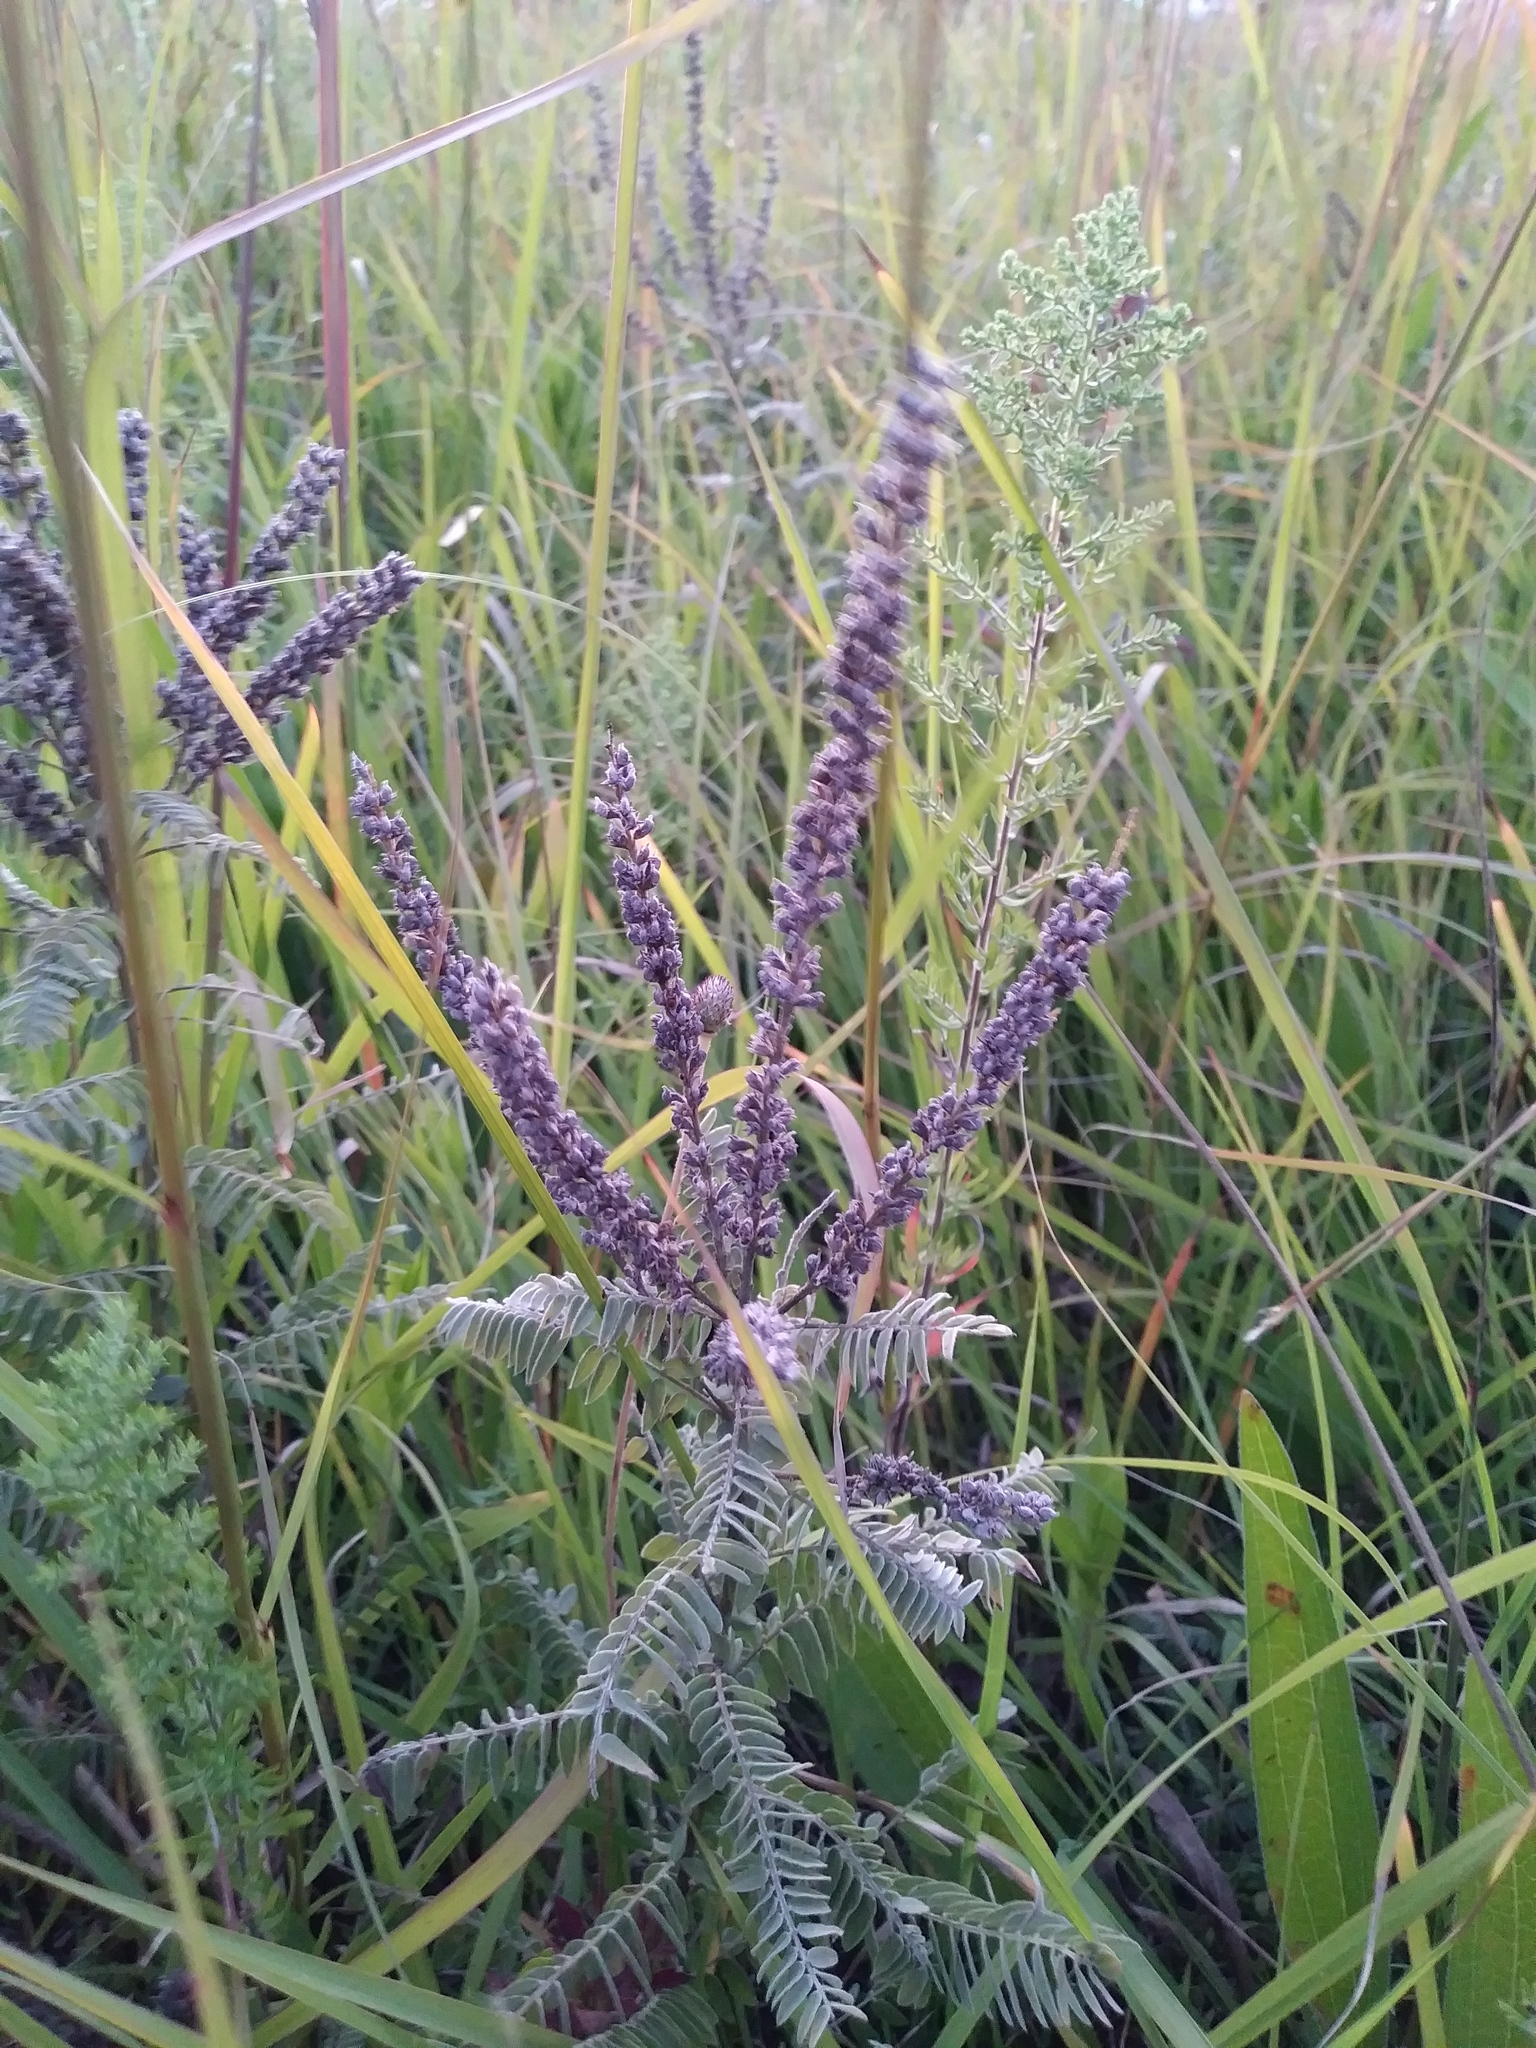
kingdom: Plantae
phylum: Tracheophyta
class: Magnoliopsida
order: Fabales
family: Fabaceae
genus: Amorpha
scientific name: Amorpha canescens
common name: Leadplant
